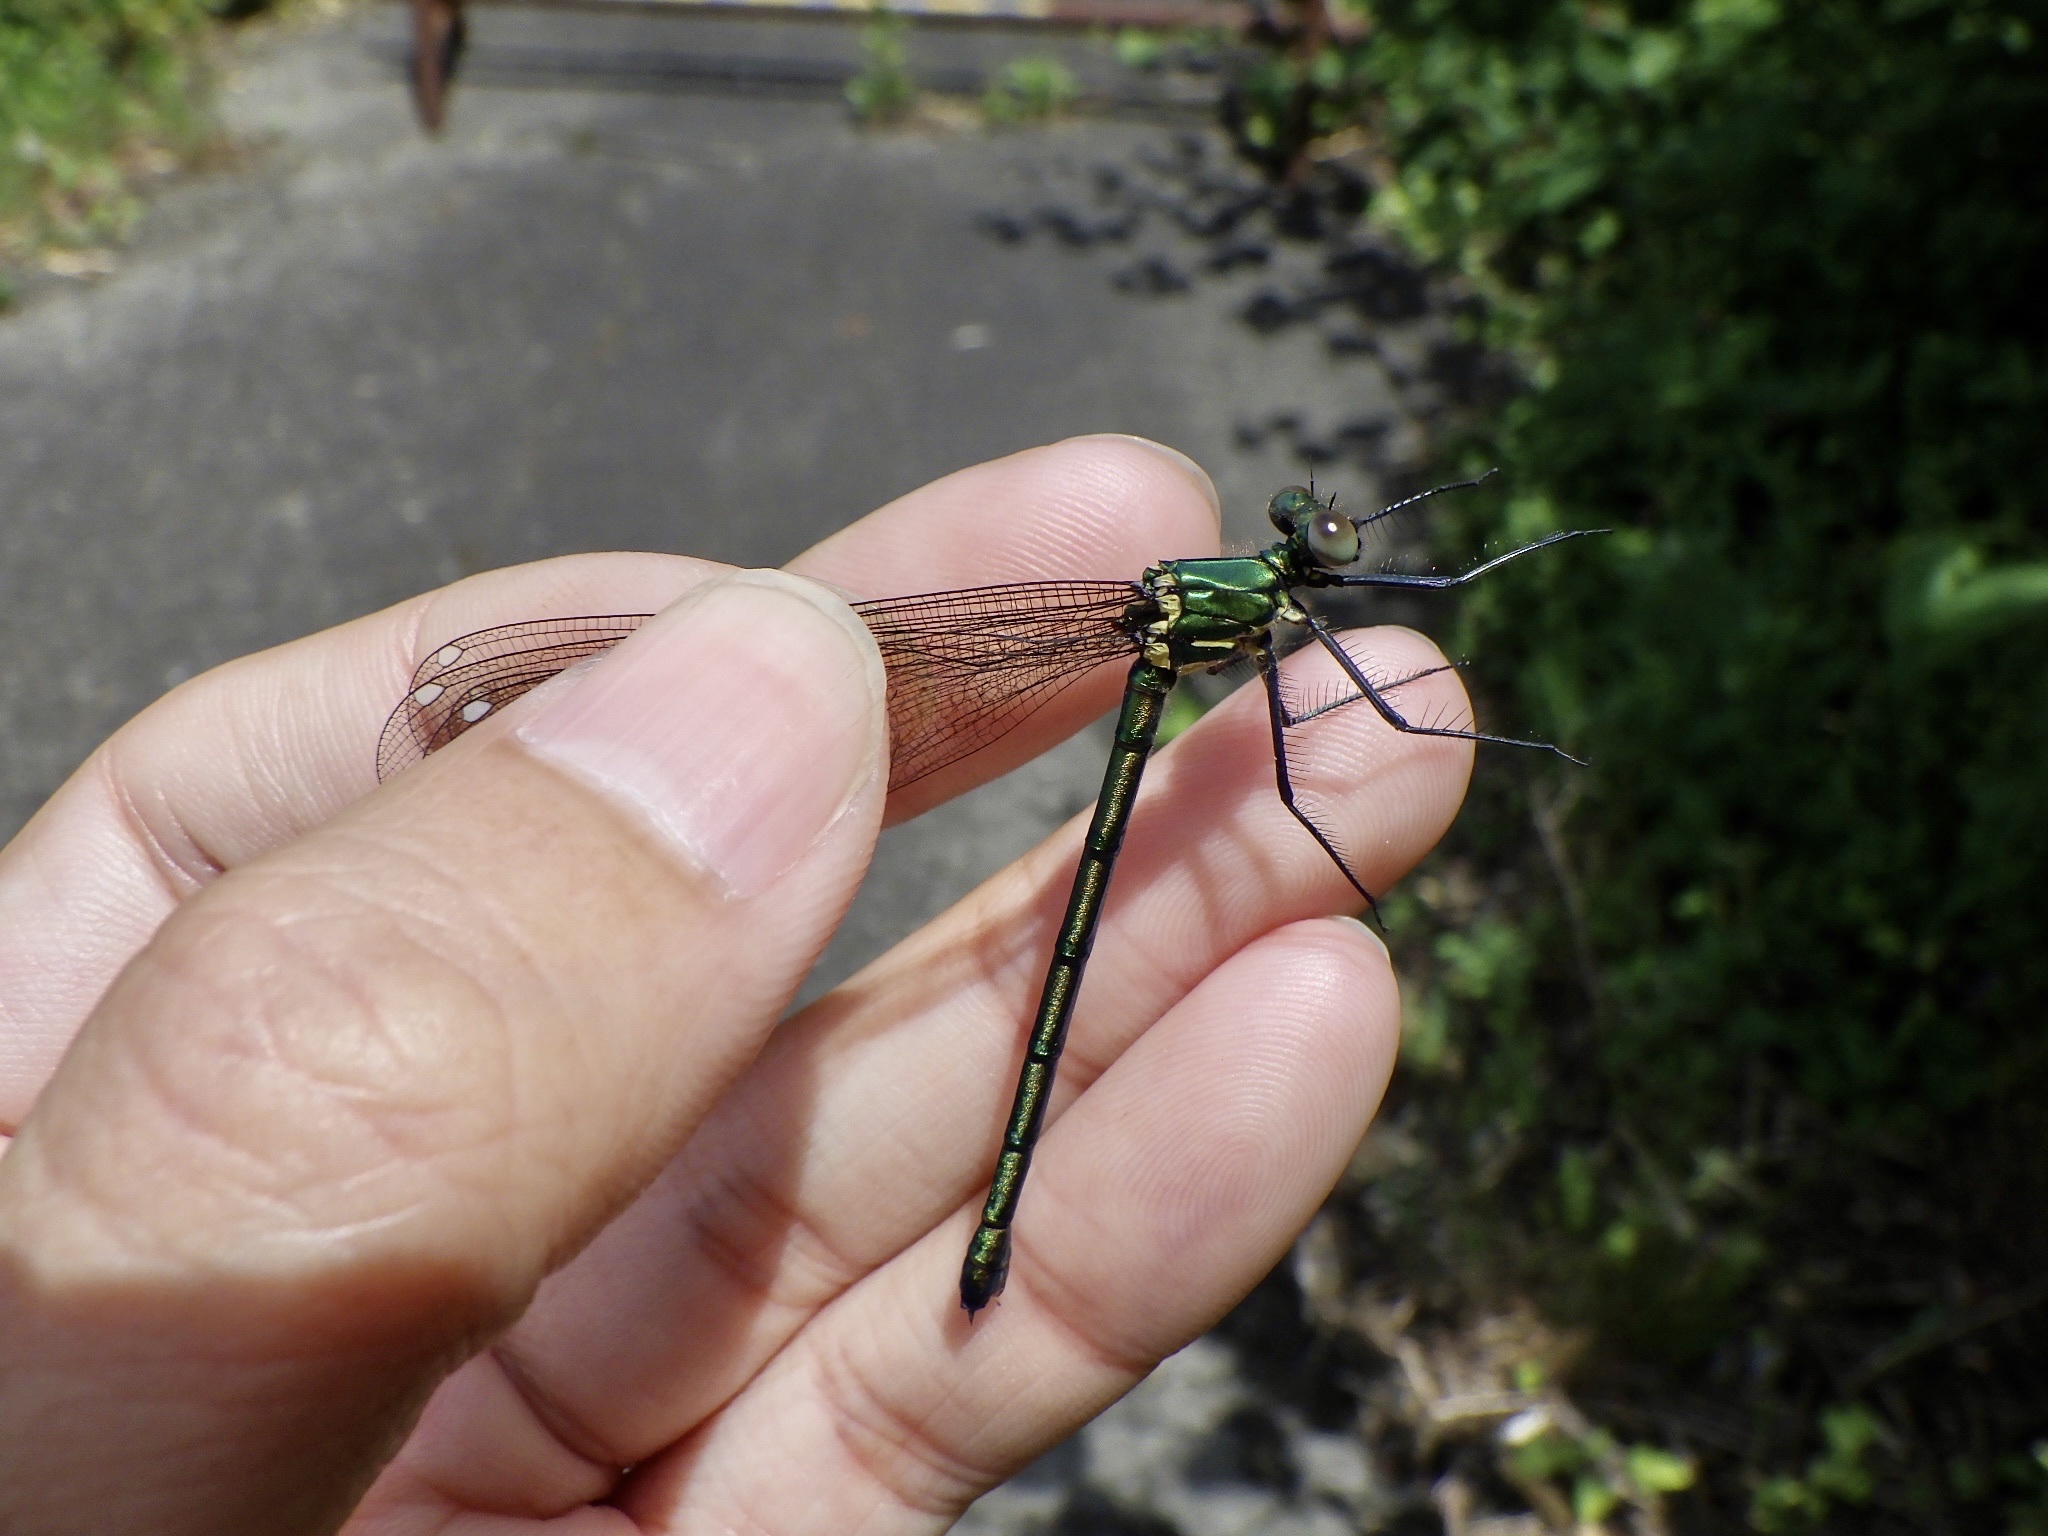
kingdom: Animalia
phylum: Arthropoda
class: Insecta
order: Odonata
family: Calopterygidae
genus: Mnais
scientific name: Mnais pruinosa
